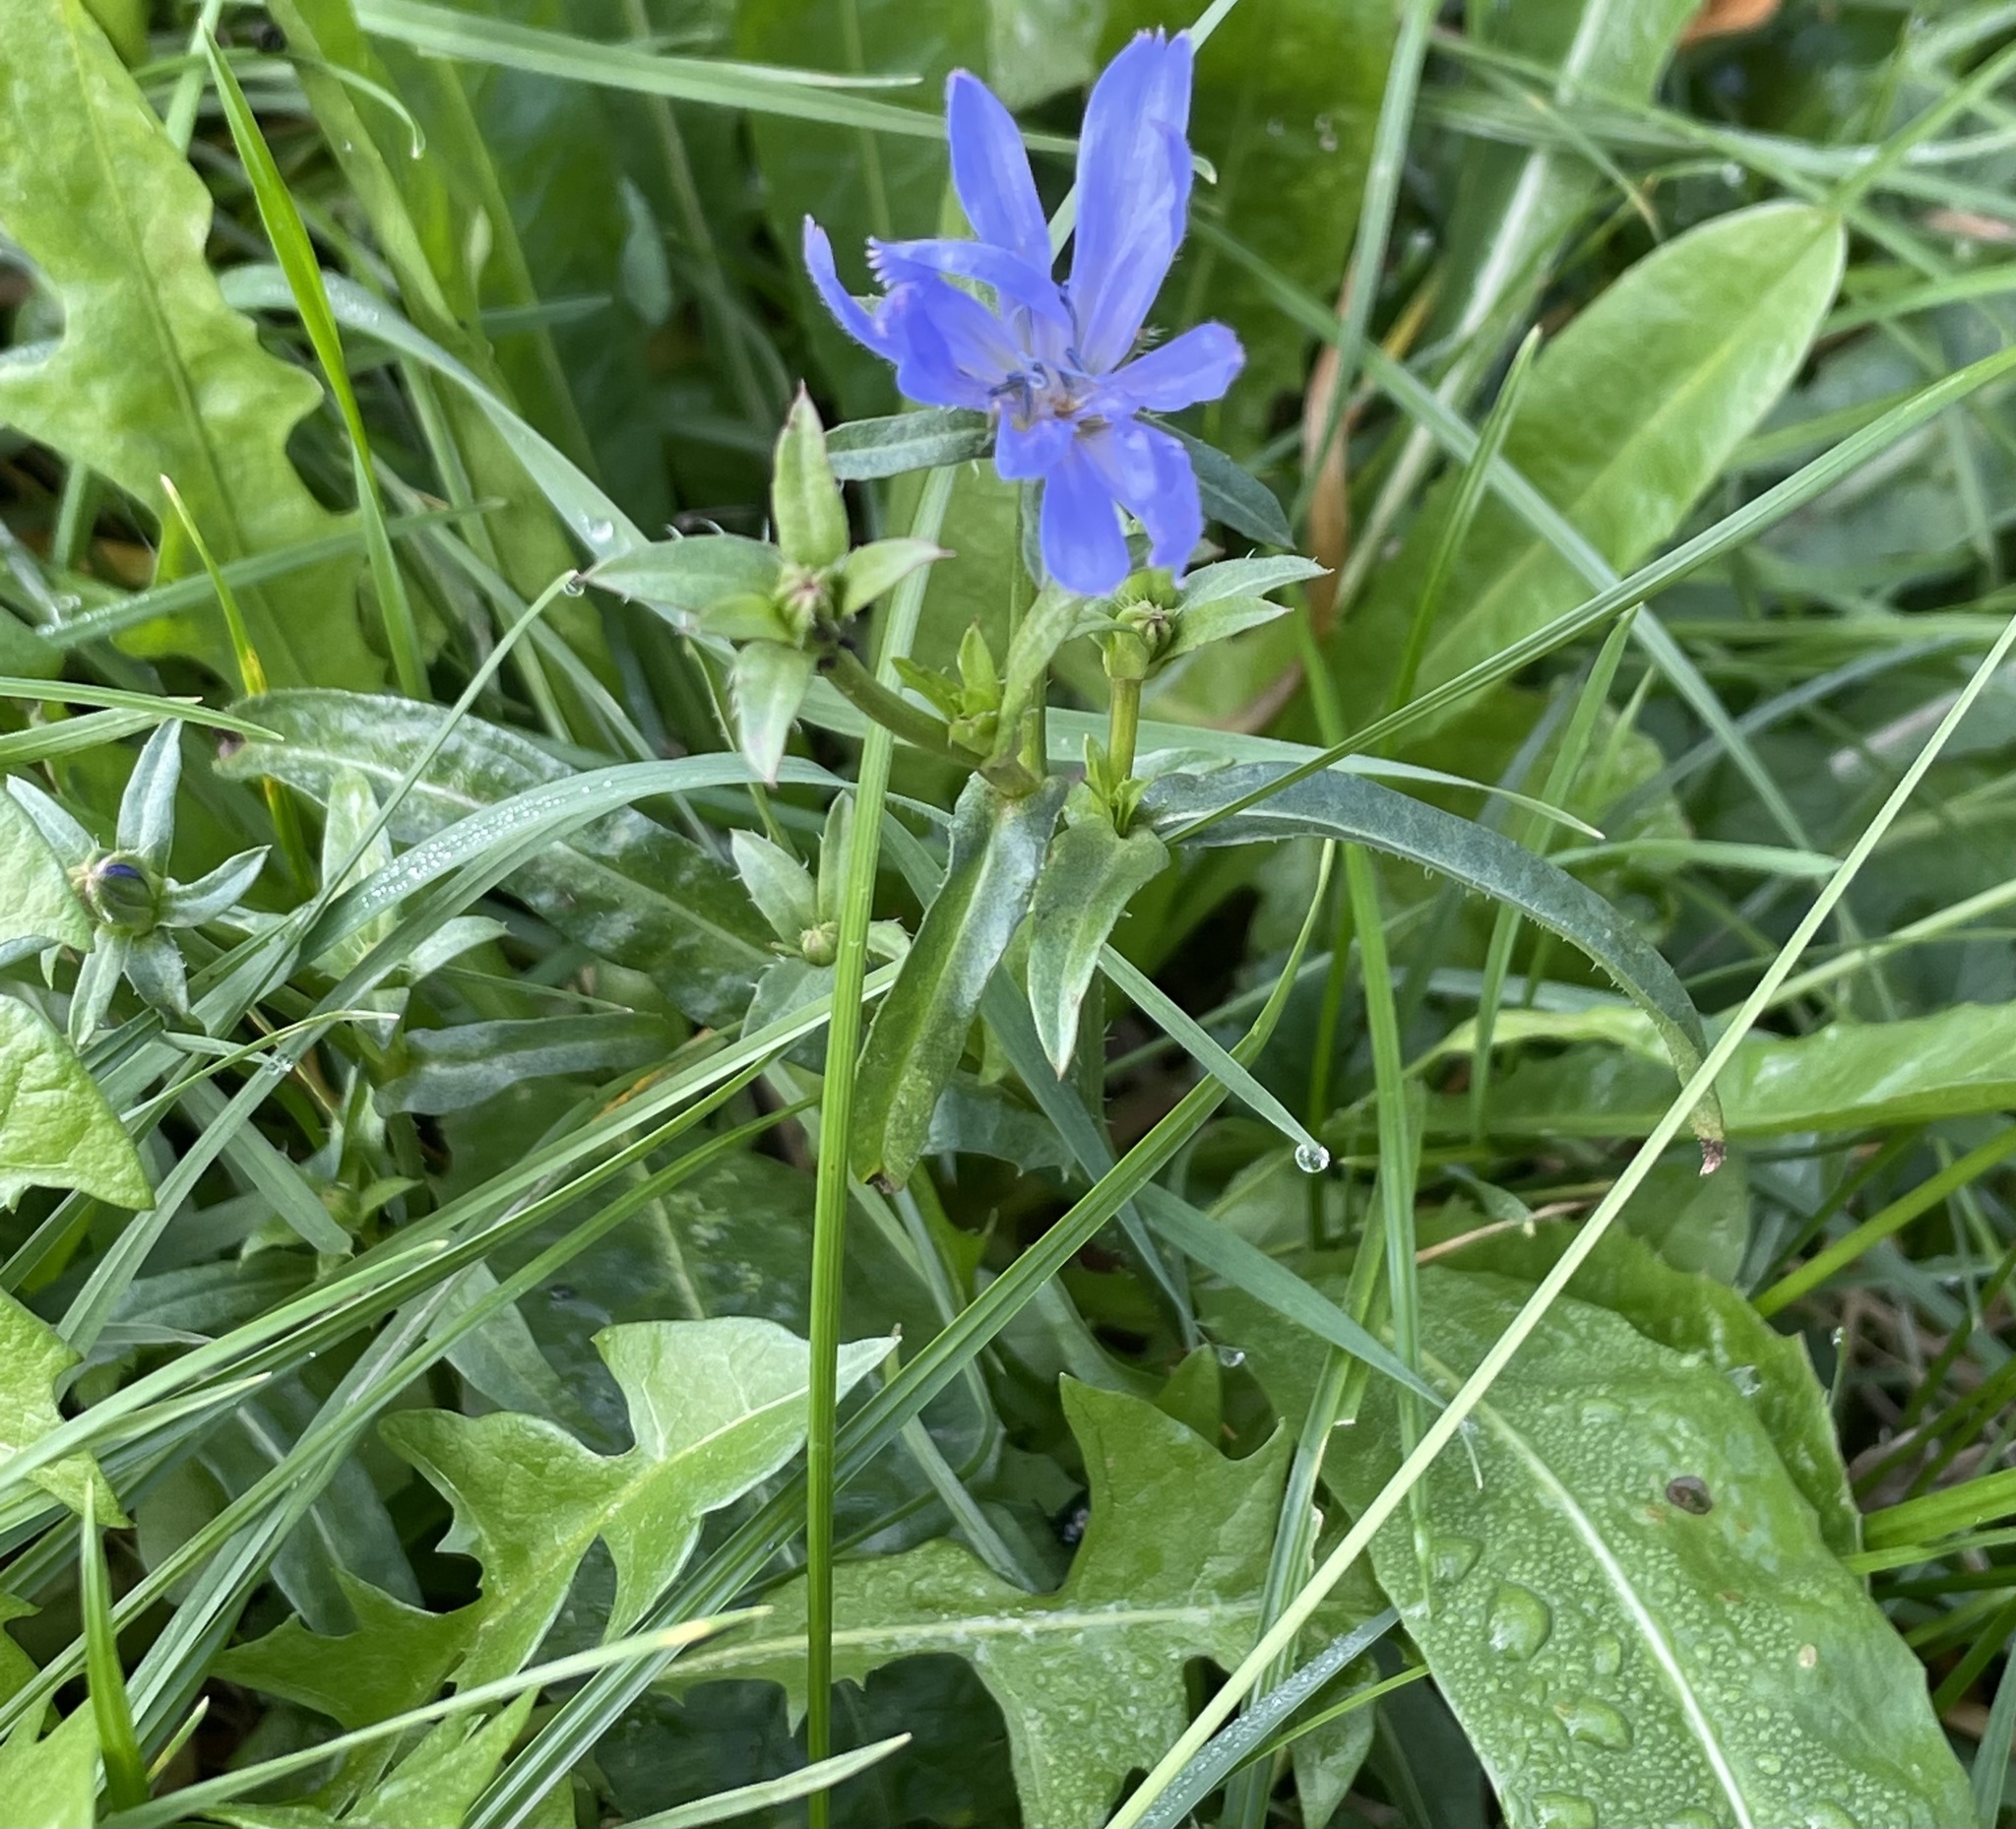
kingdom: Plantae
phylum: Tracheophyta
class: Magnoliopsida
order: Asterales
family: Asteraceae
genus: Cichorium
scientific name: Cichorium intybus
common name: Chicory
